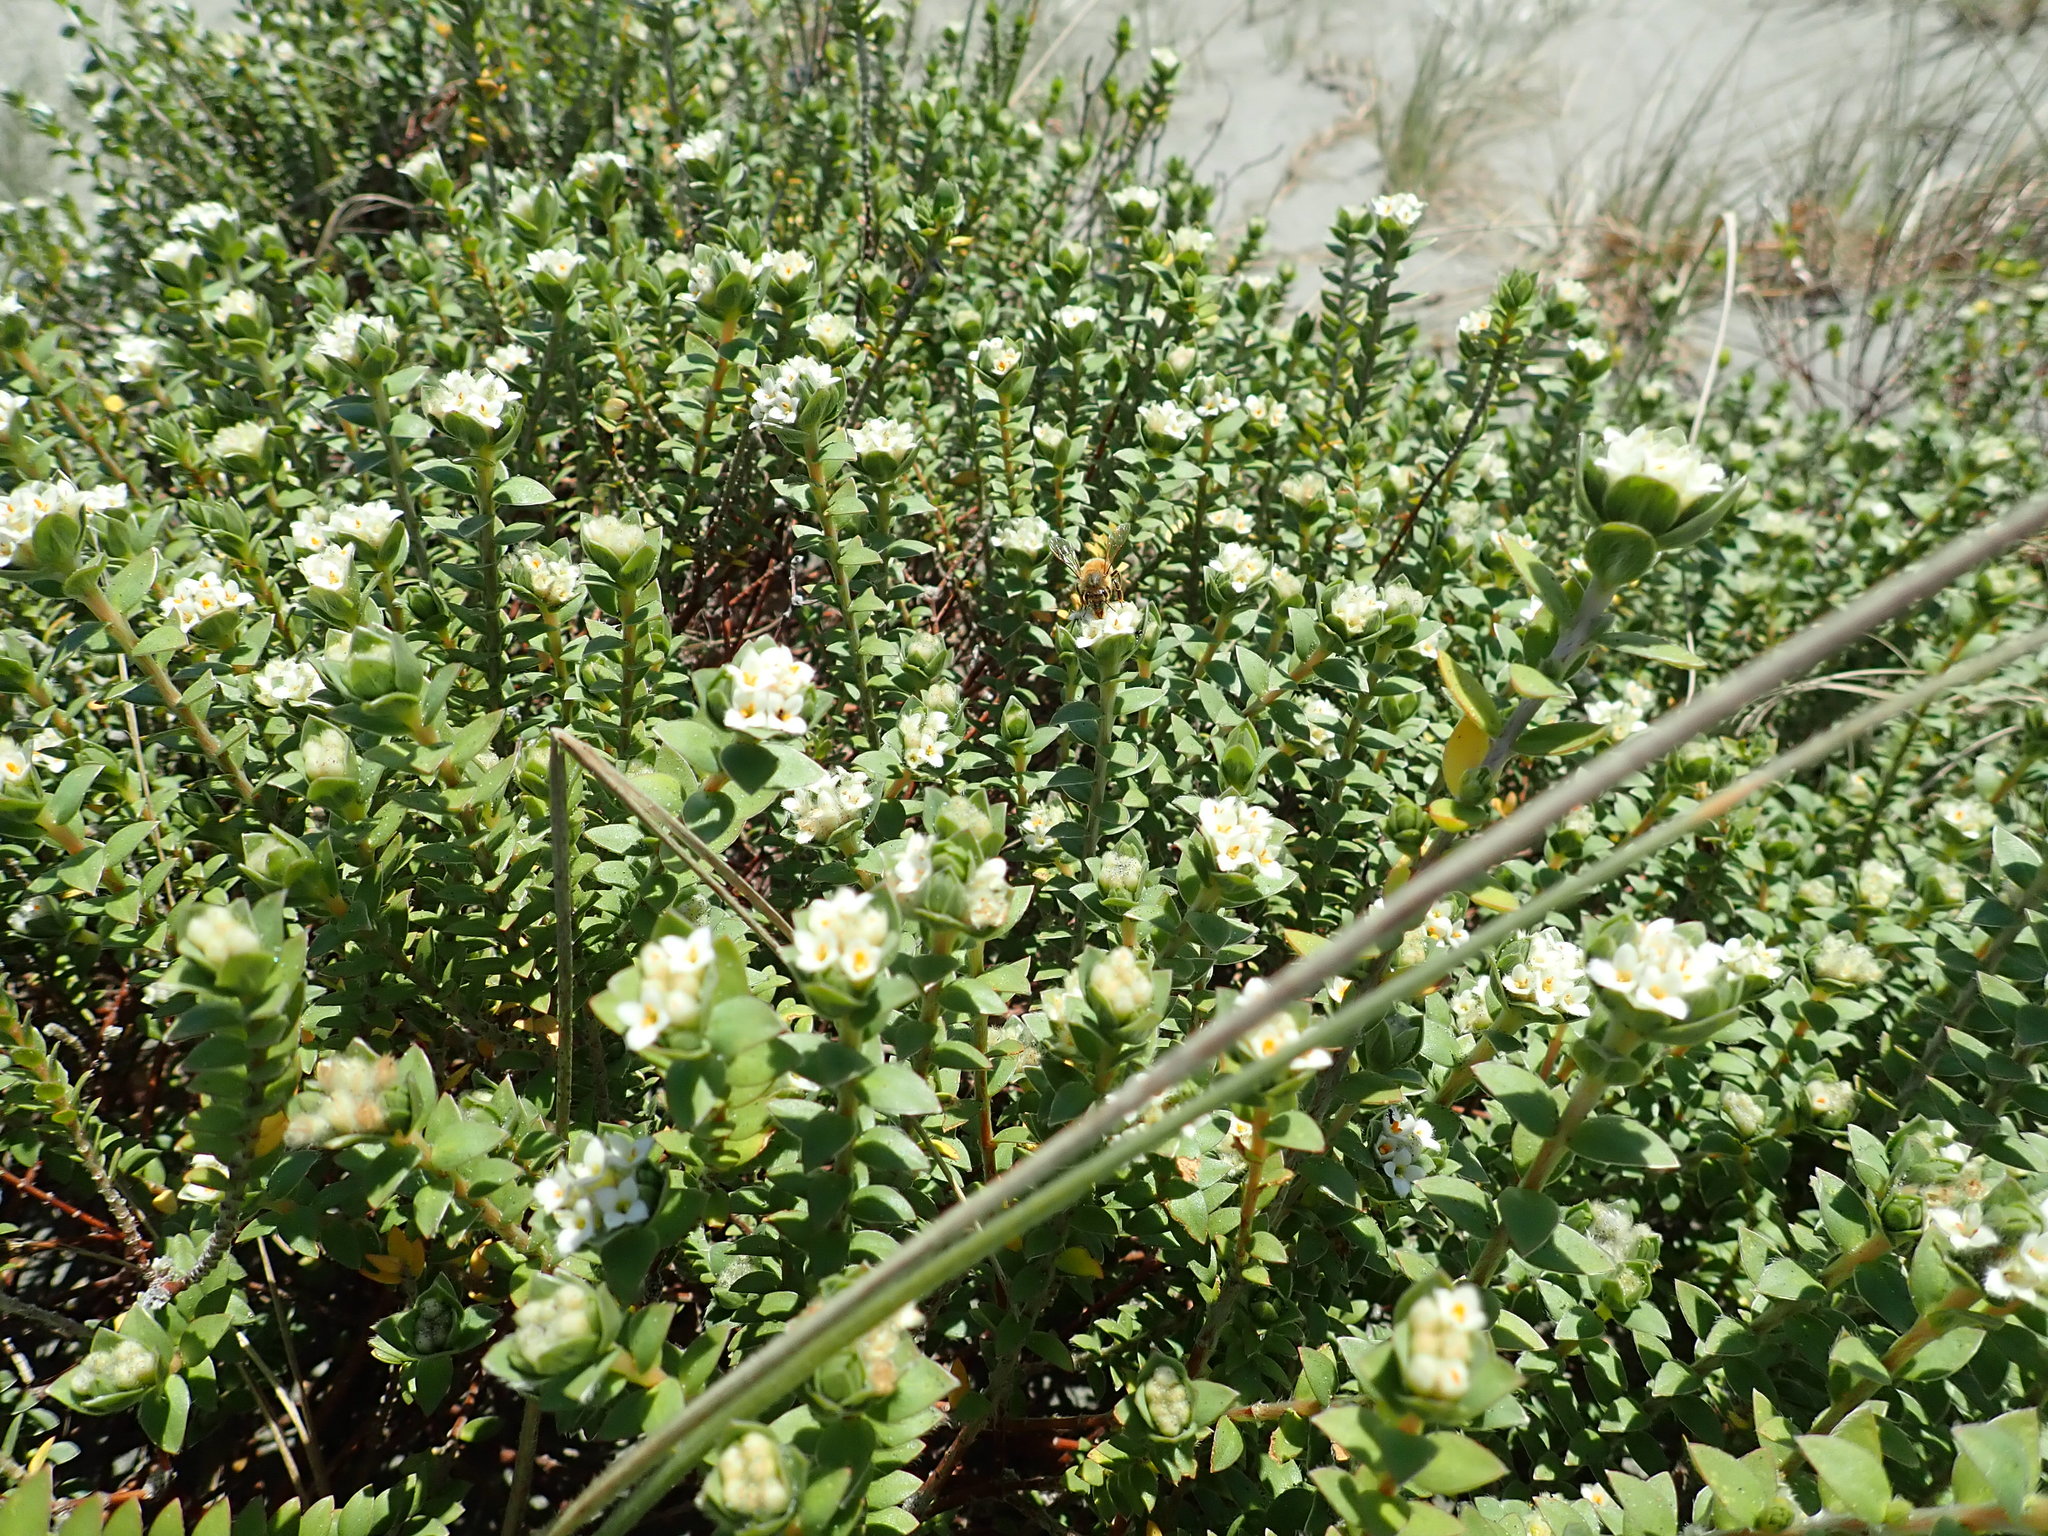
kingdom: Animalia
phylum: Arthropoda
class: Insecta
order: Hymenoptera
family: Apidae
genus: Apis
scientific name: Apis mellifera
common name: Honey bee
